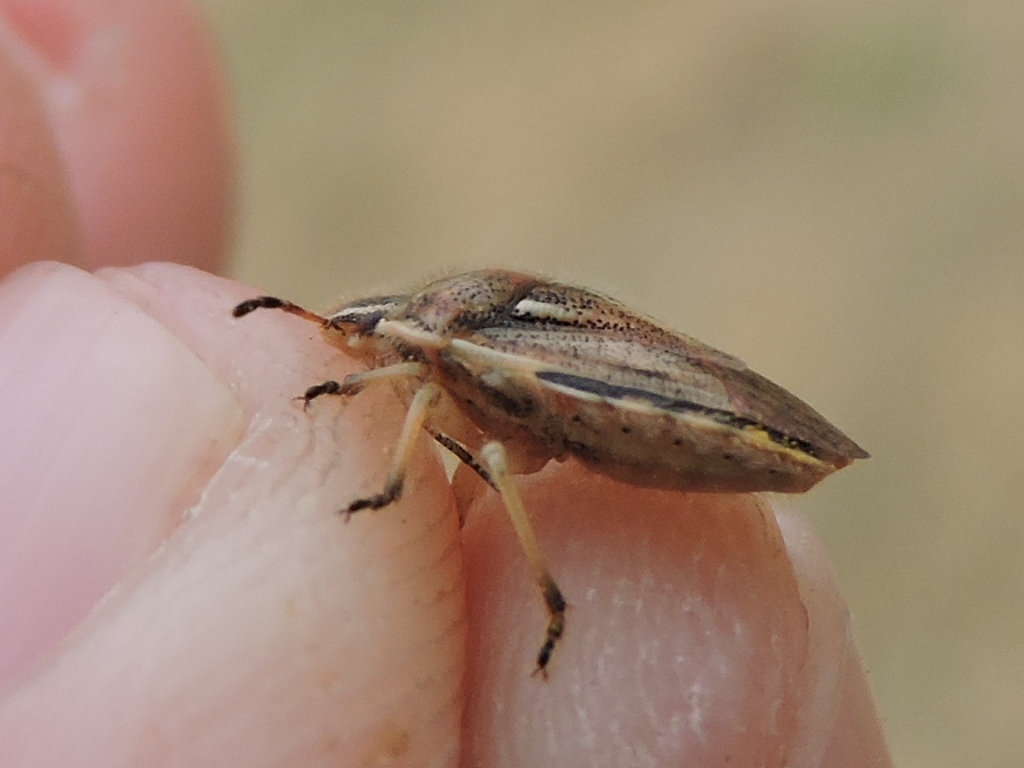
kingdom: Animalia
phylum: Arthropoda
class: Insecta
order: Hemiptera
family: Pentatomidae
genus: Trichopepla
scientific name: Trichopepla semivittata
